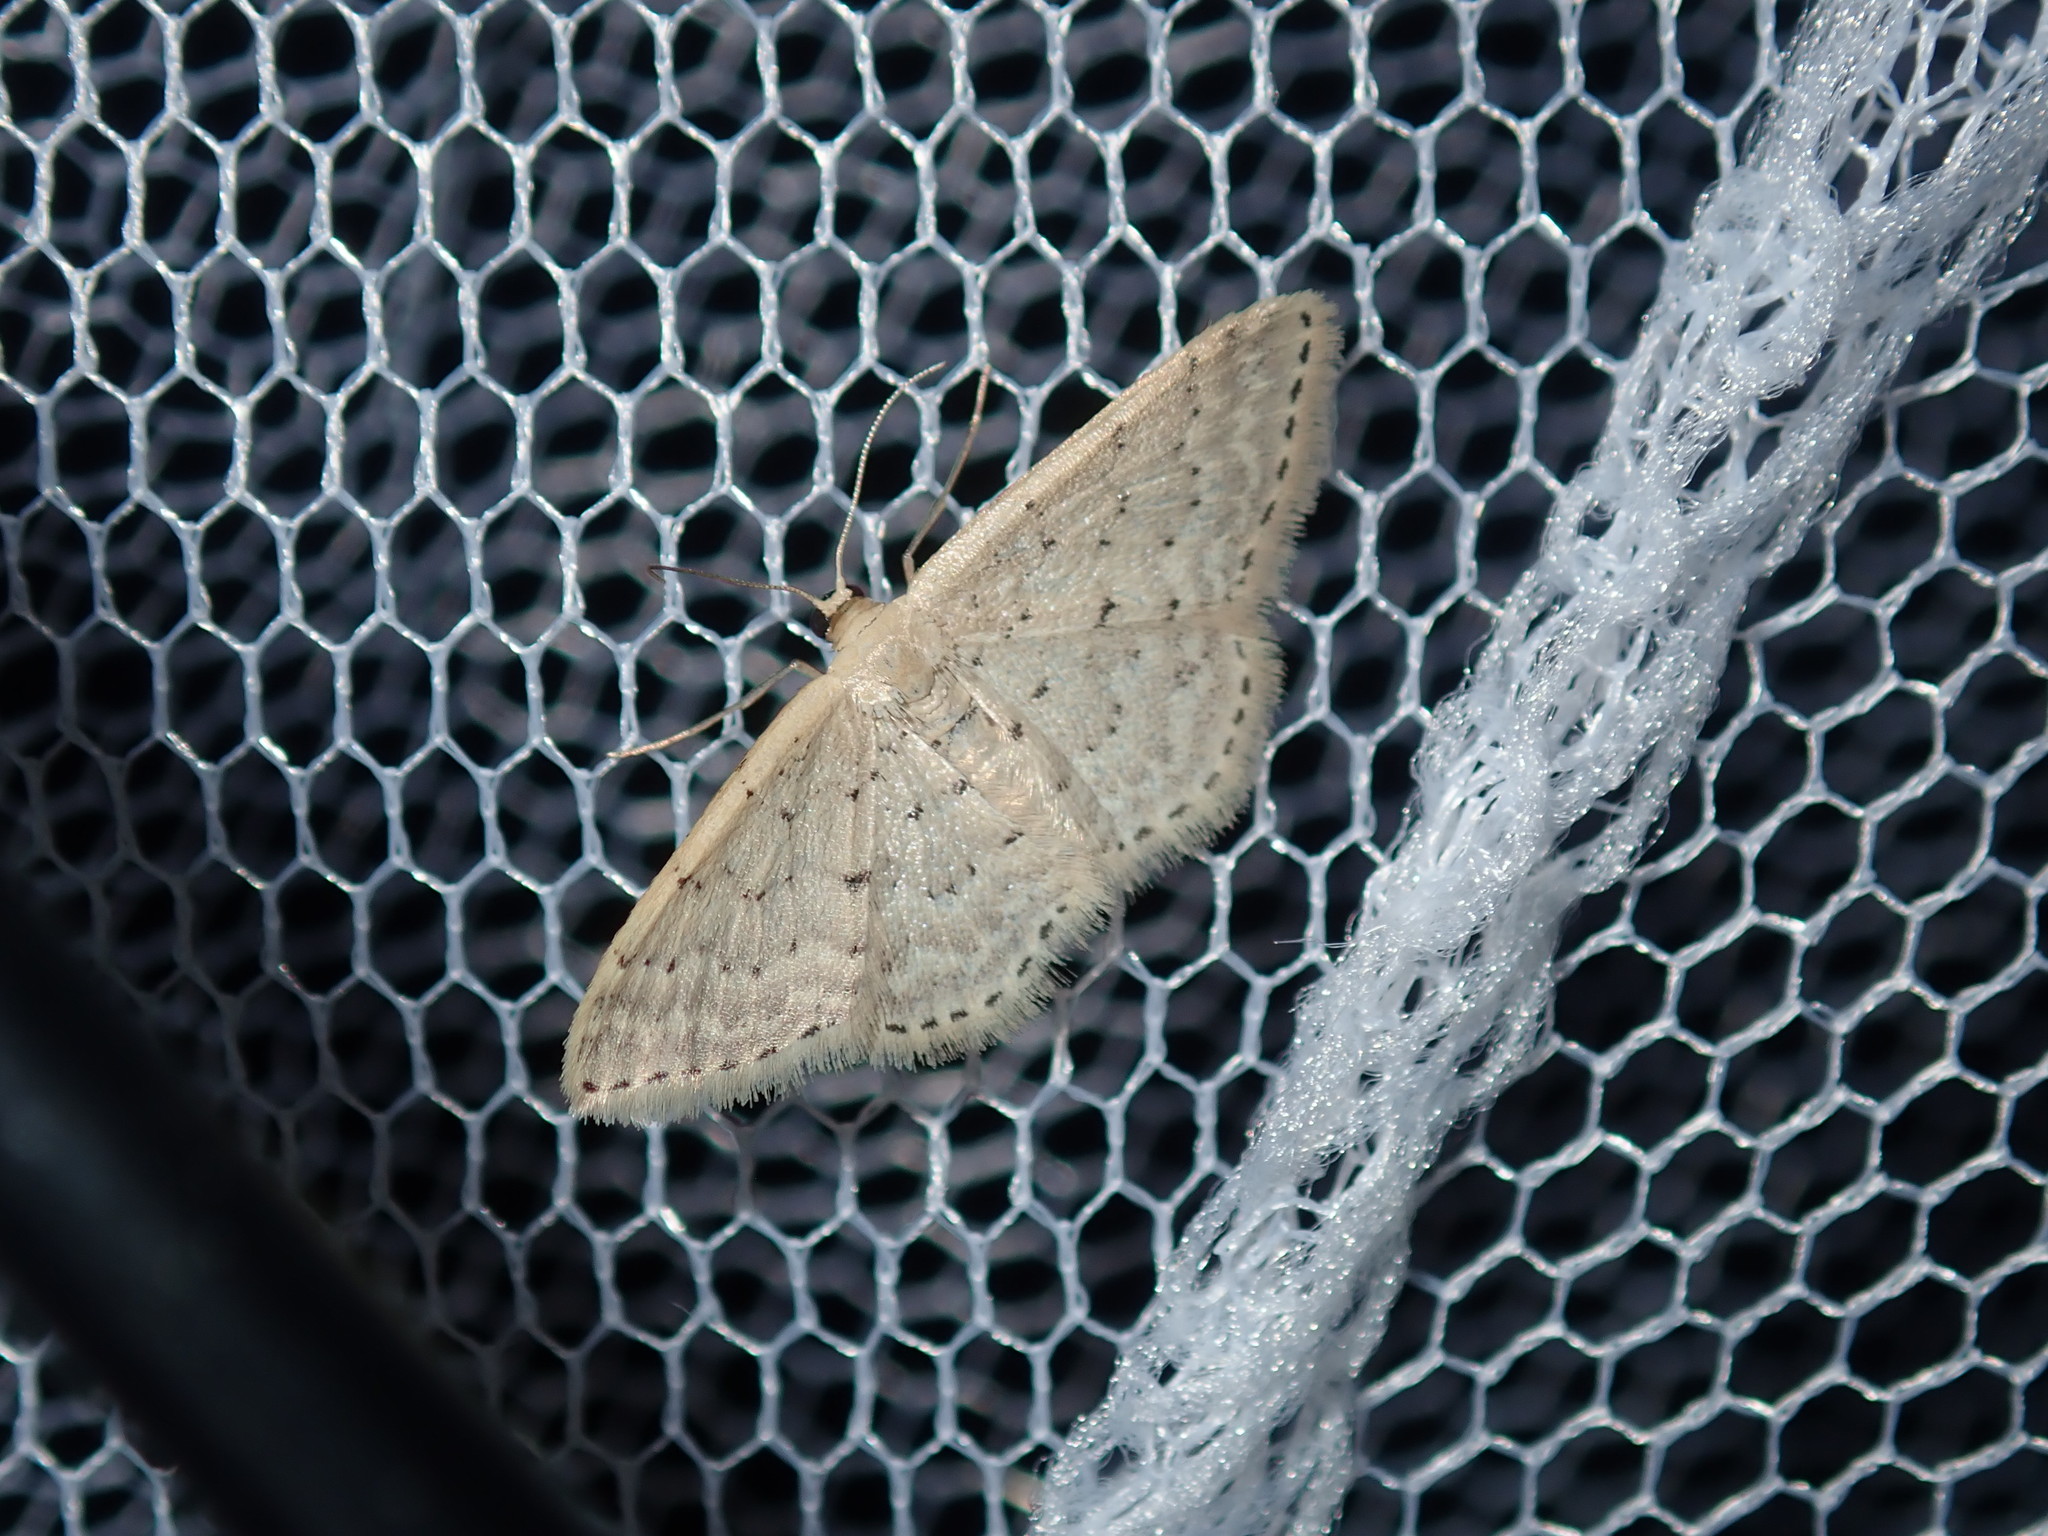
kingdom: Animalia
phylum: Arthropoda
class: Insecta
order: Lepidoptera
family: Geometridae
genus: Idaea
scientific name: Idaea philocosma
